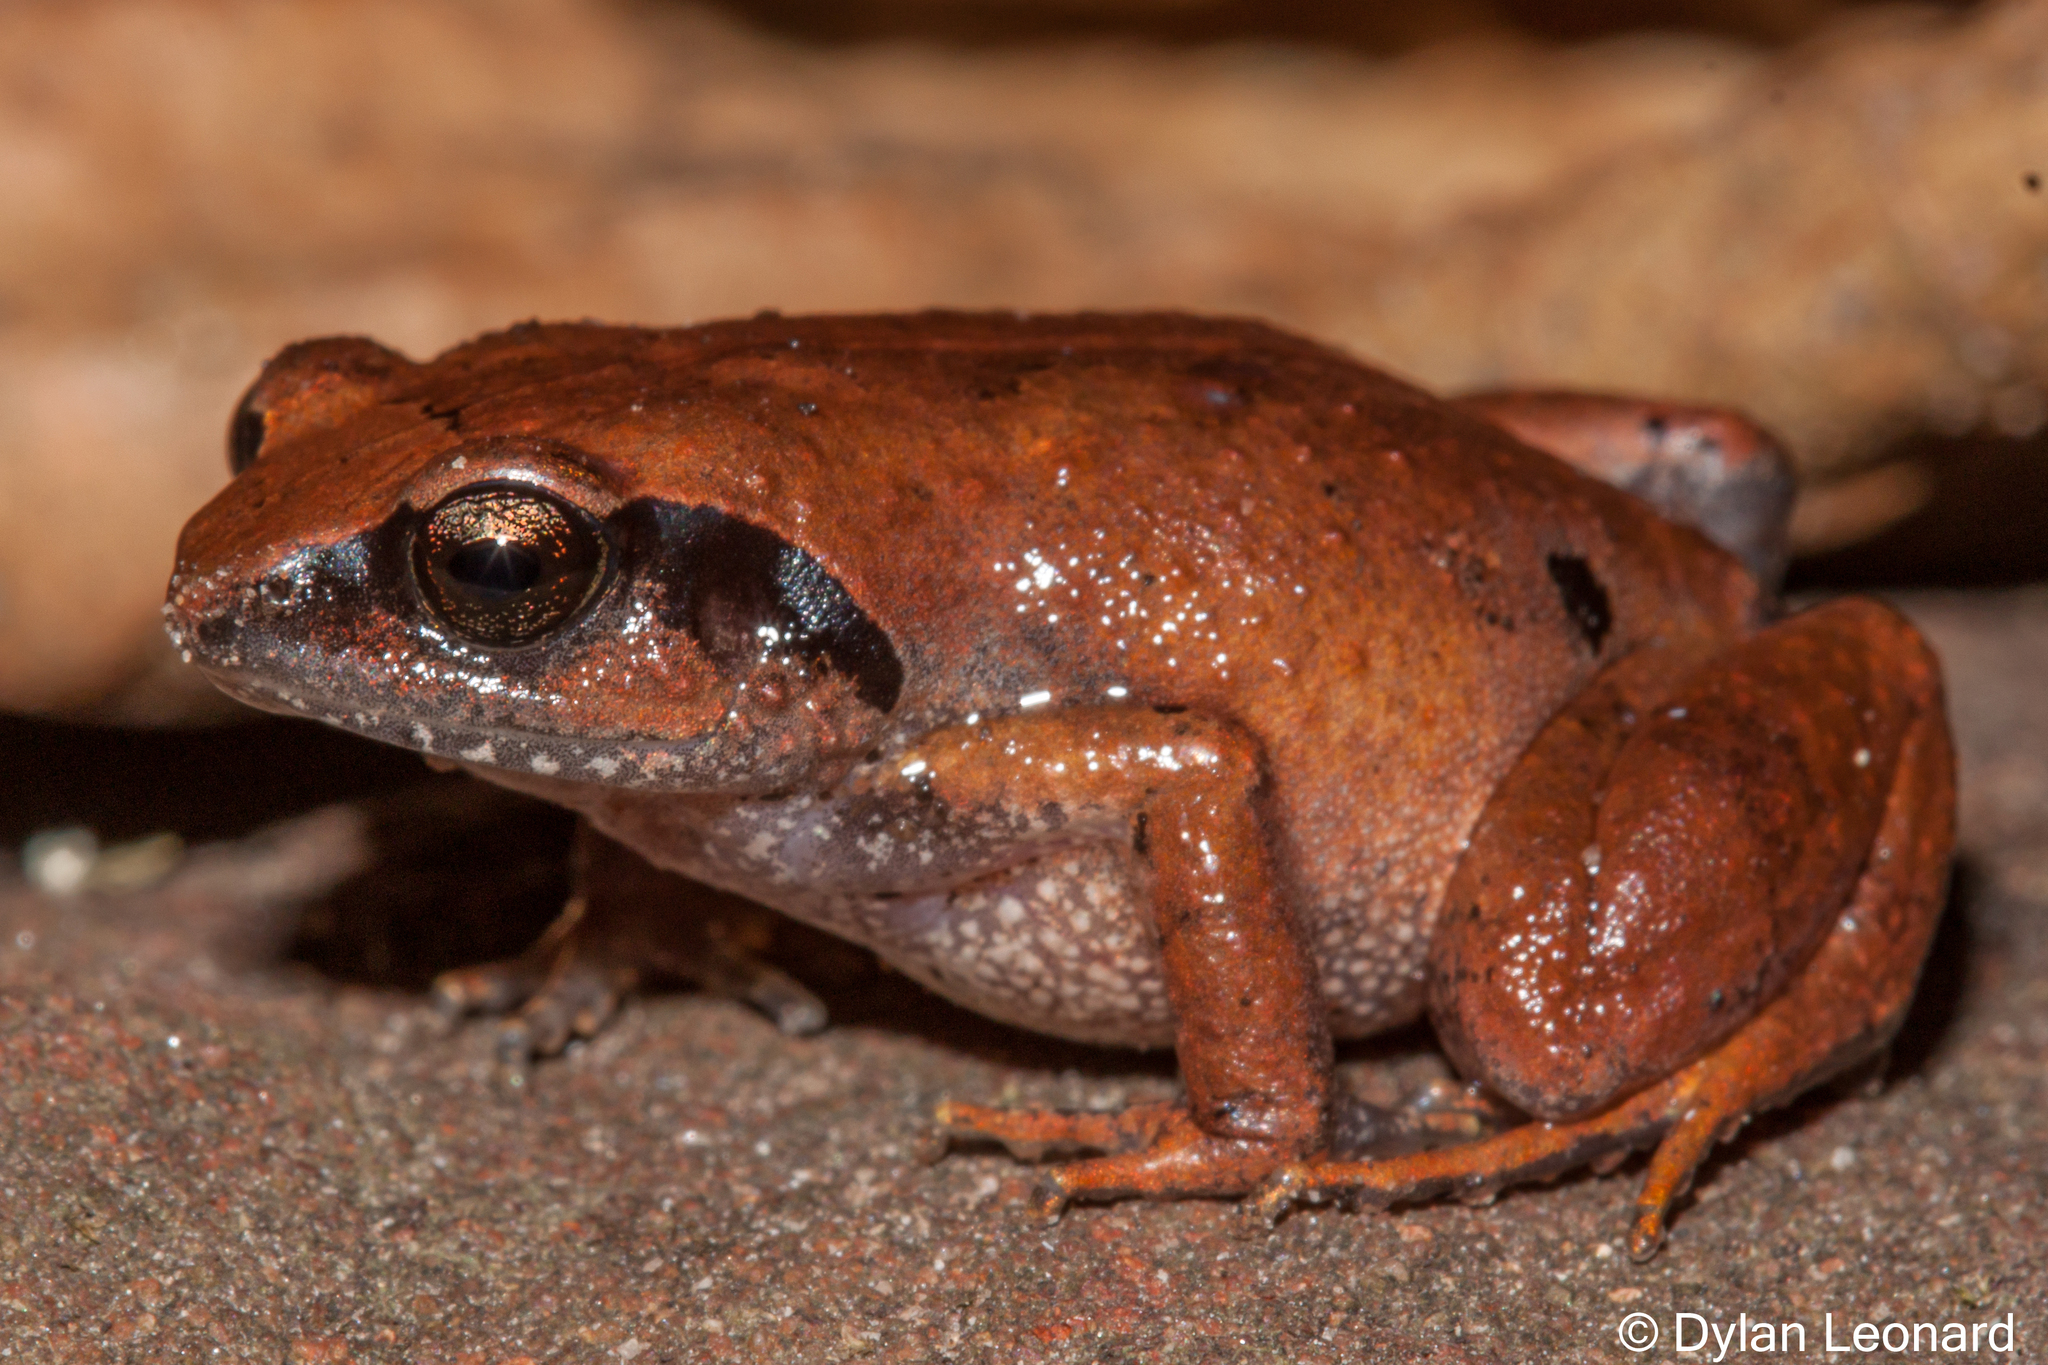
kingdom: Animalia
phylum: Chordata
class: Amphibia
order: Anura
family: Arthroleptidae
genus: Arthroleptis
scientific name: Arthroleptis wahlbergii
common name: Bush squeaker
